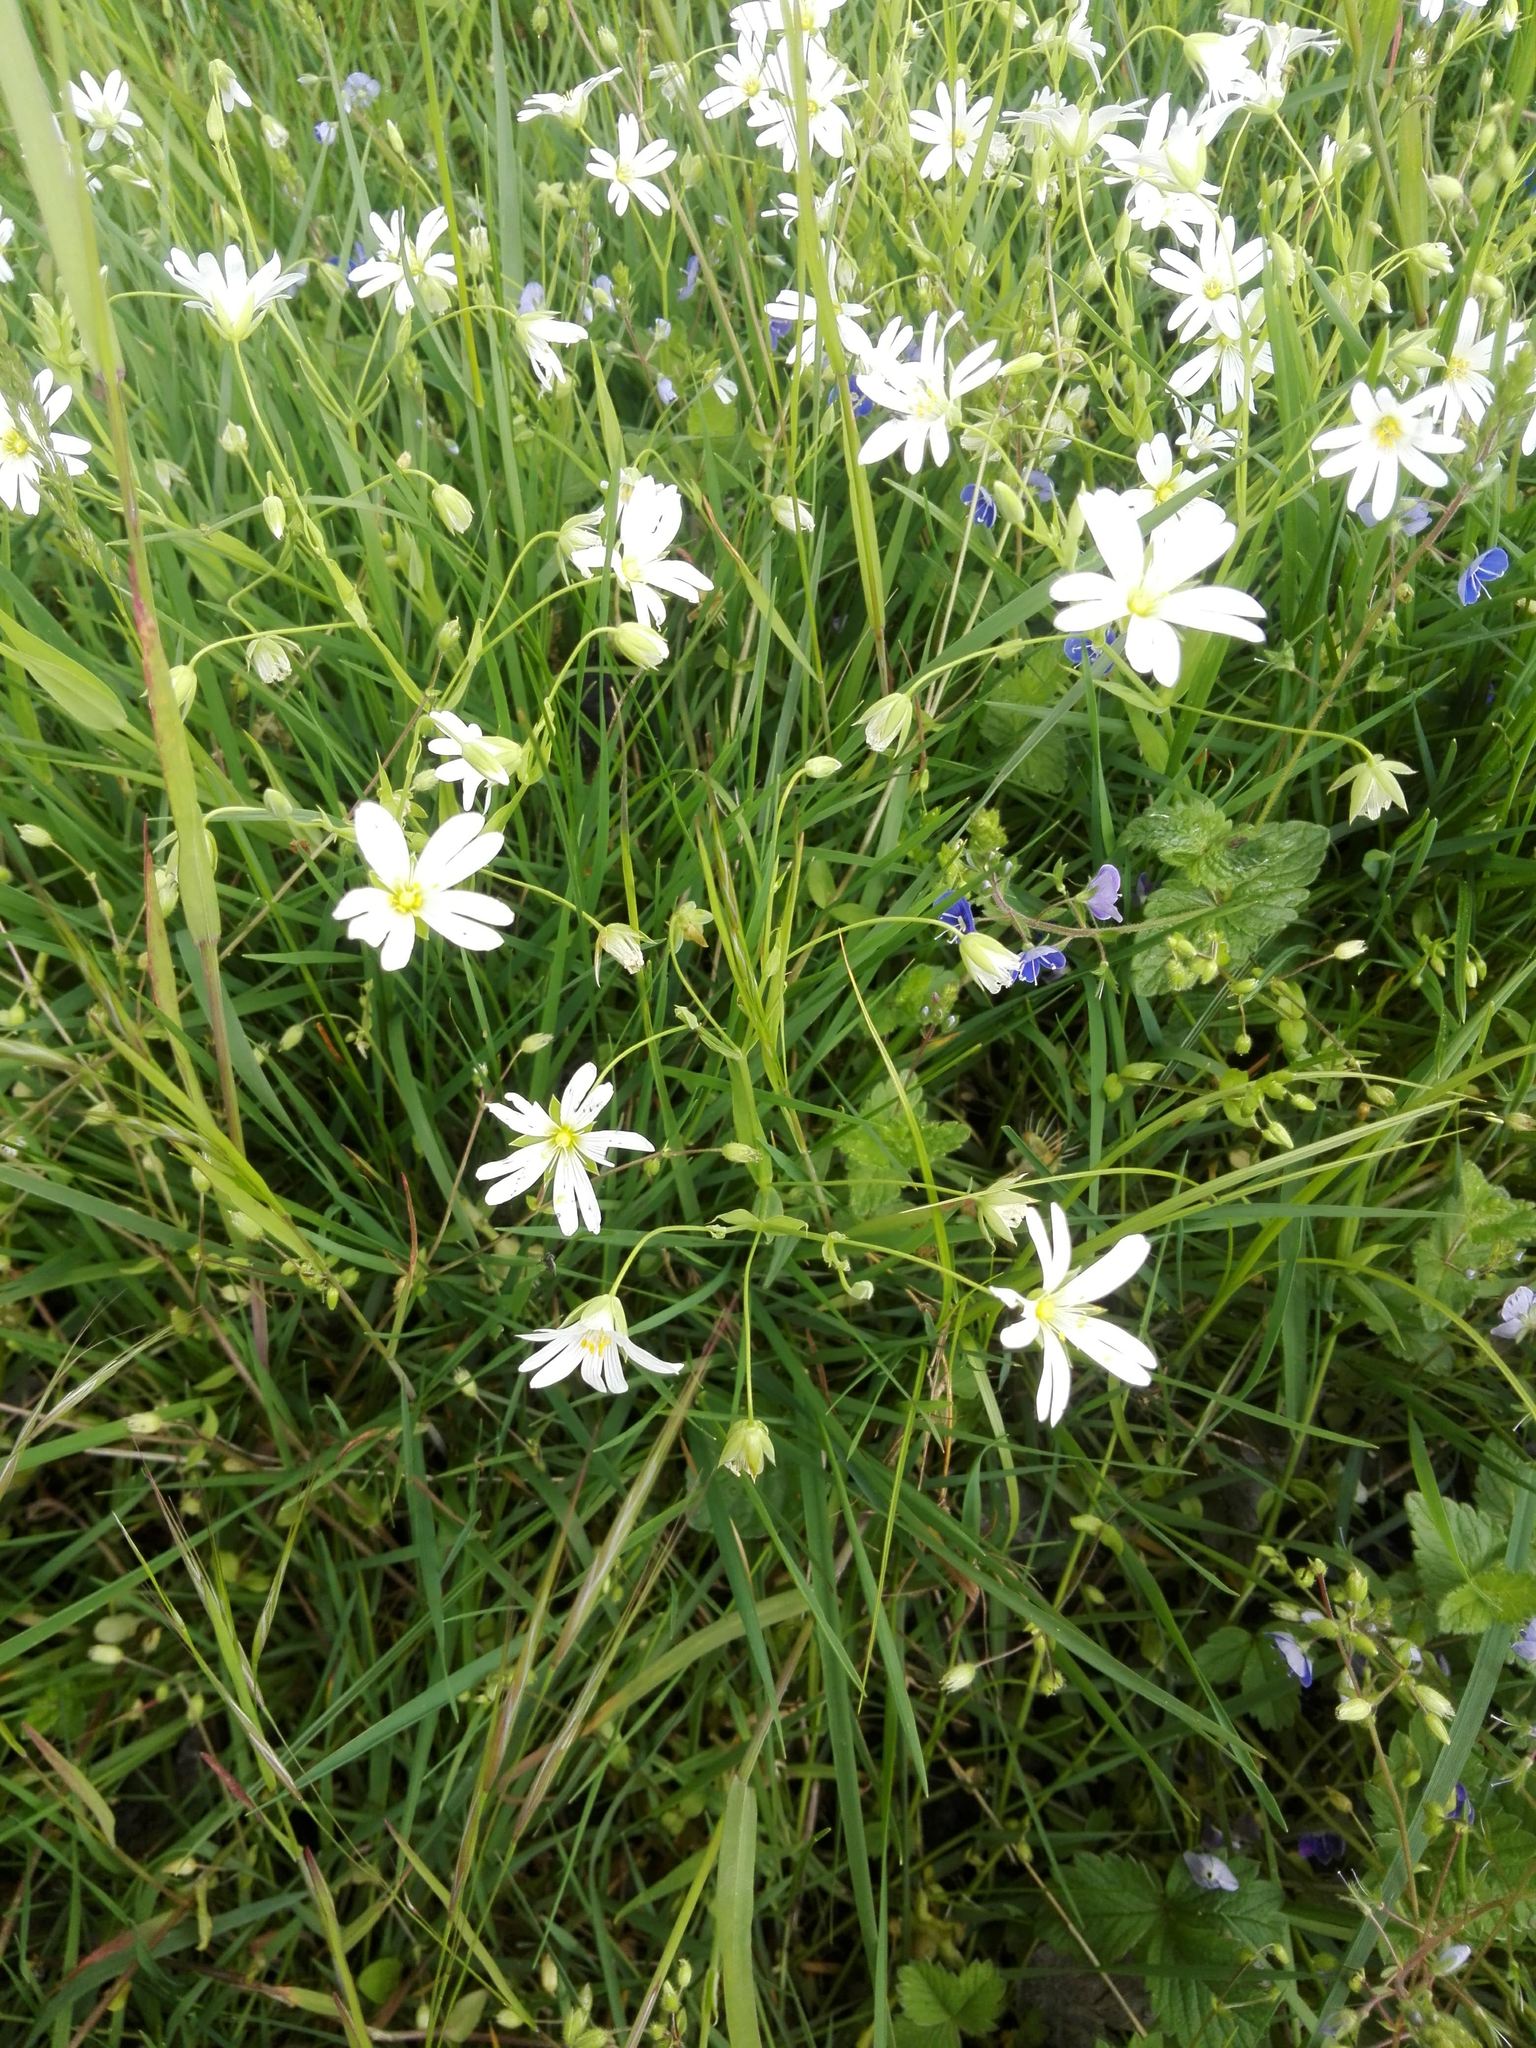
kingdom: Plantae
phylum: Tracheophyta
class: Magnoliopsida
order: Caryophyllales
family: Caryophyllaceae
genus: Rabelera
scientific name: Rabelera holostea
